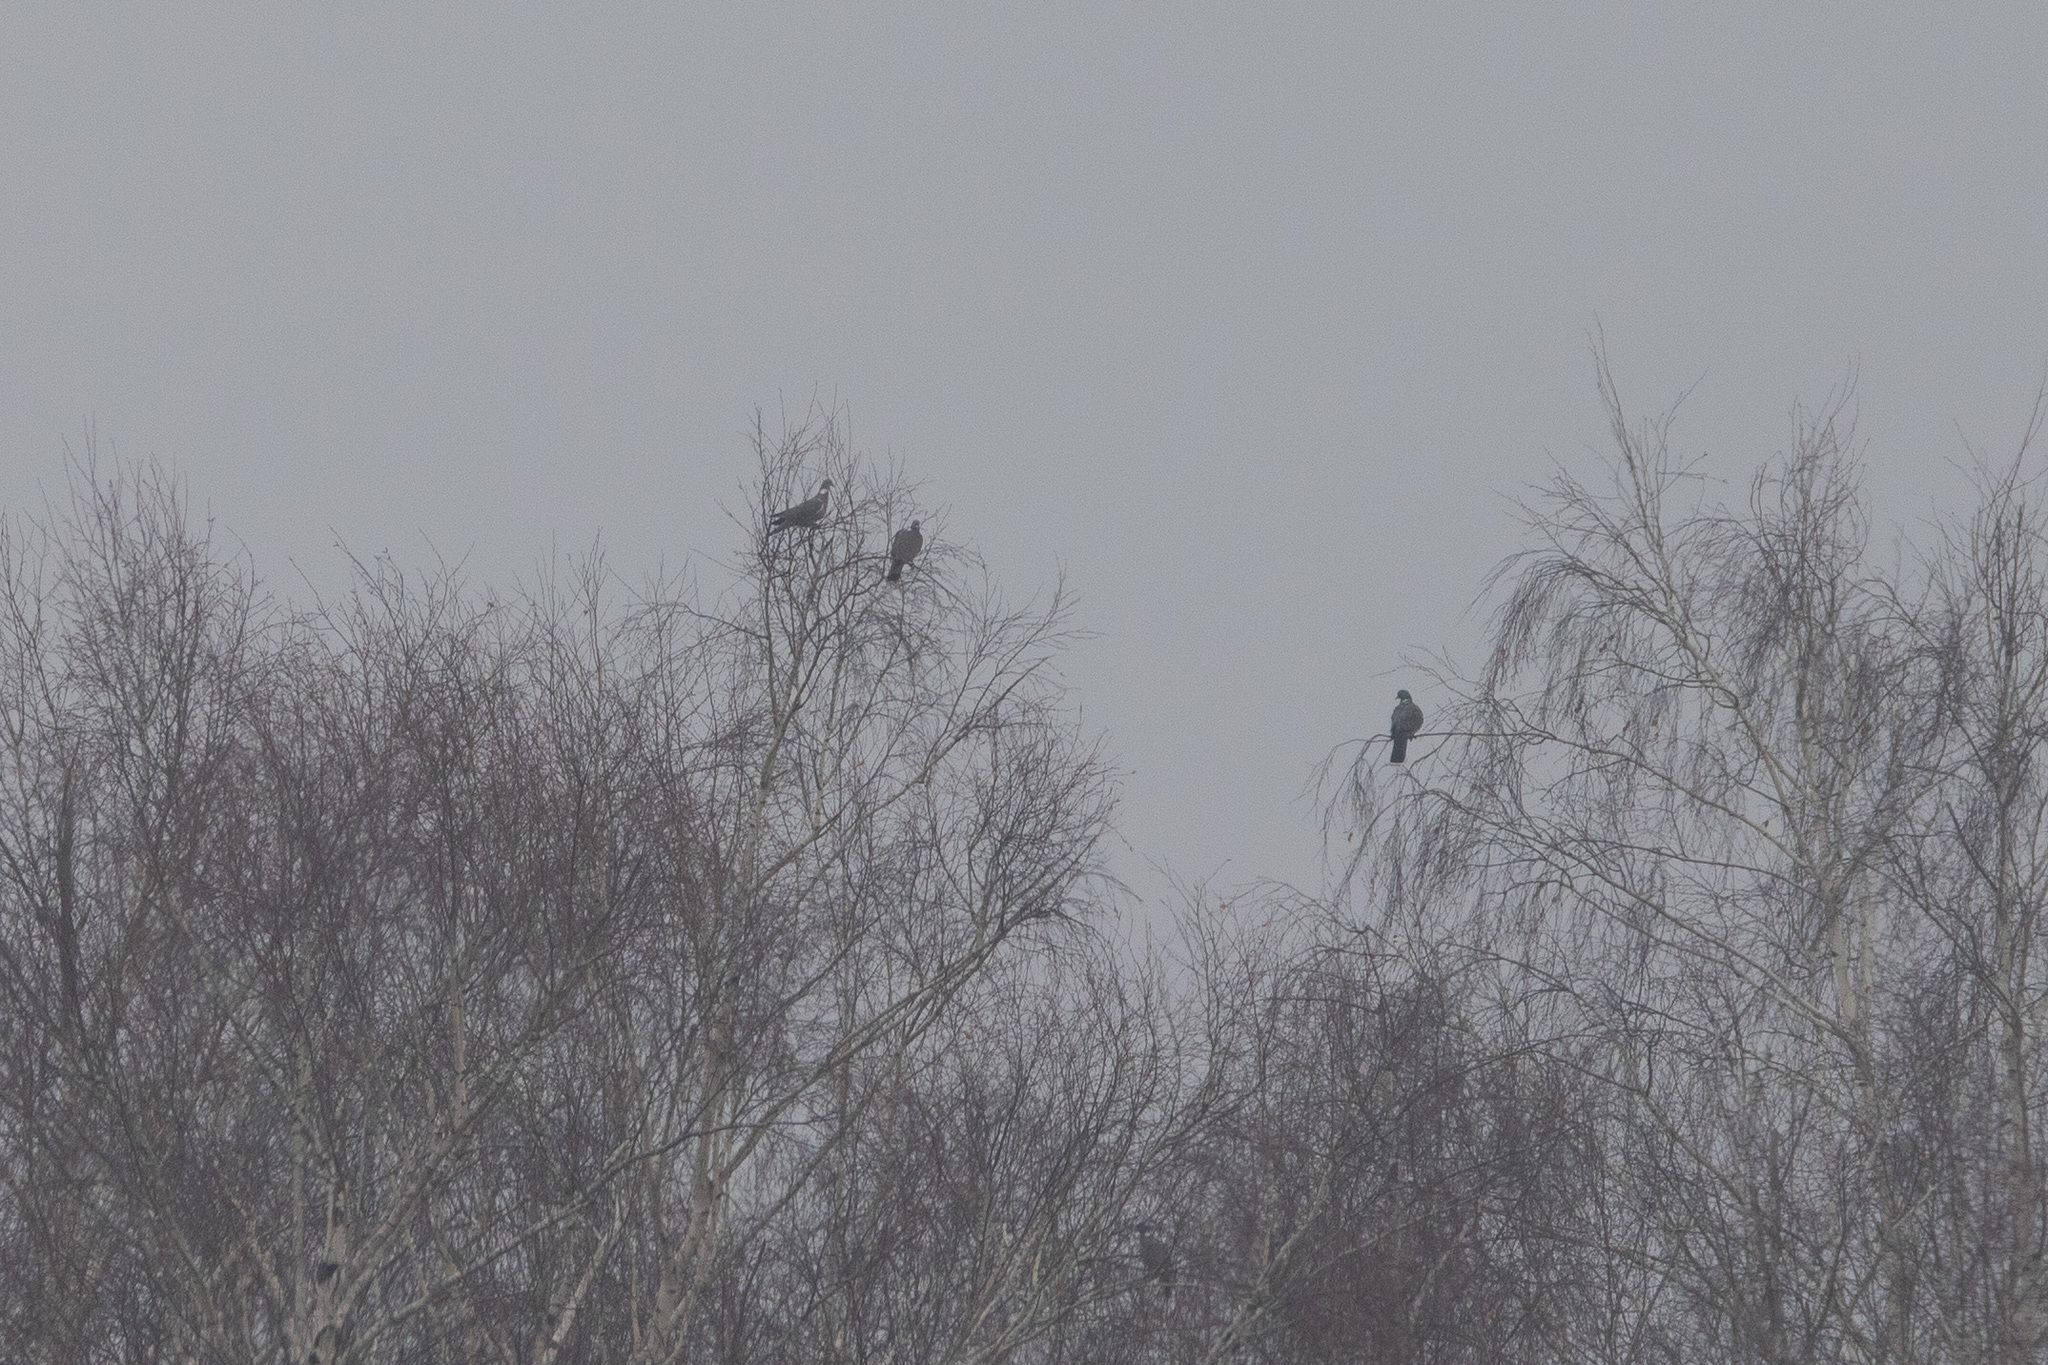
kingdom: Animalia
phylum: Chordata
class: Aves
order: Columbiformes
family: Columbidae
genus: Columba
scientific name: Columba palumbus
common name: Common wood pigeon
